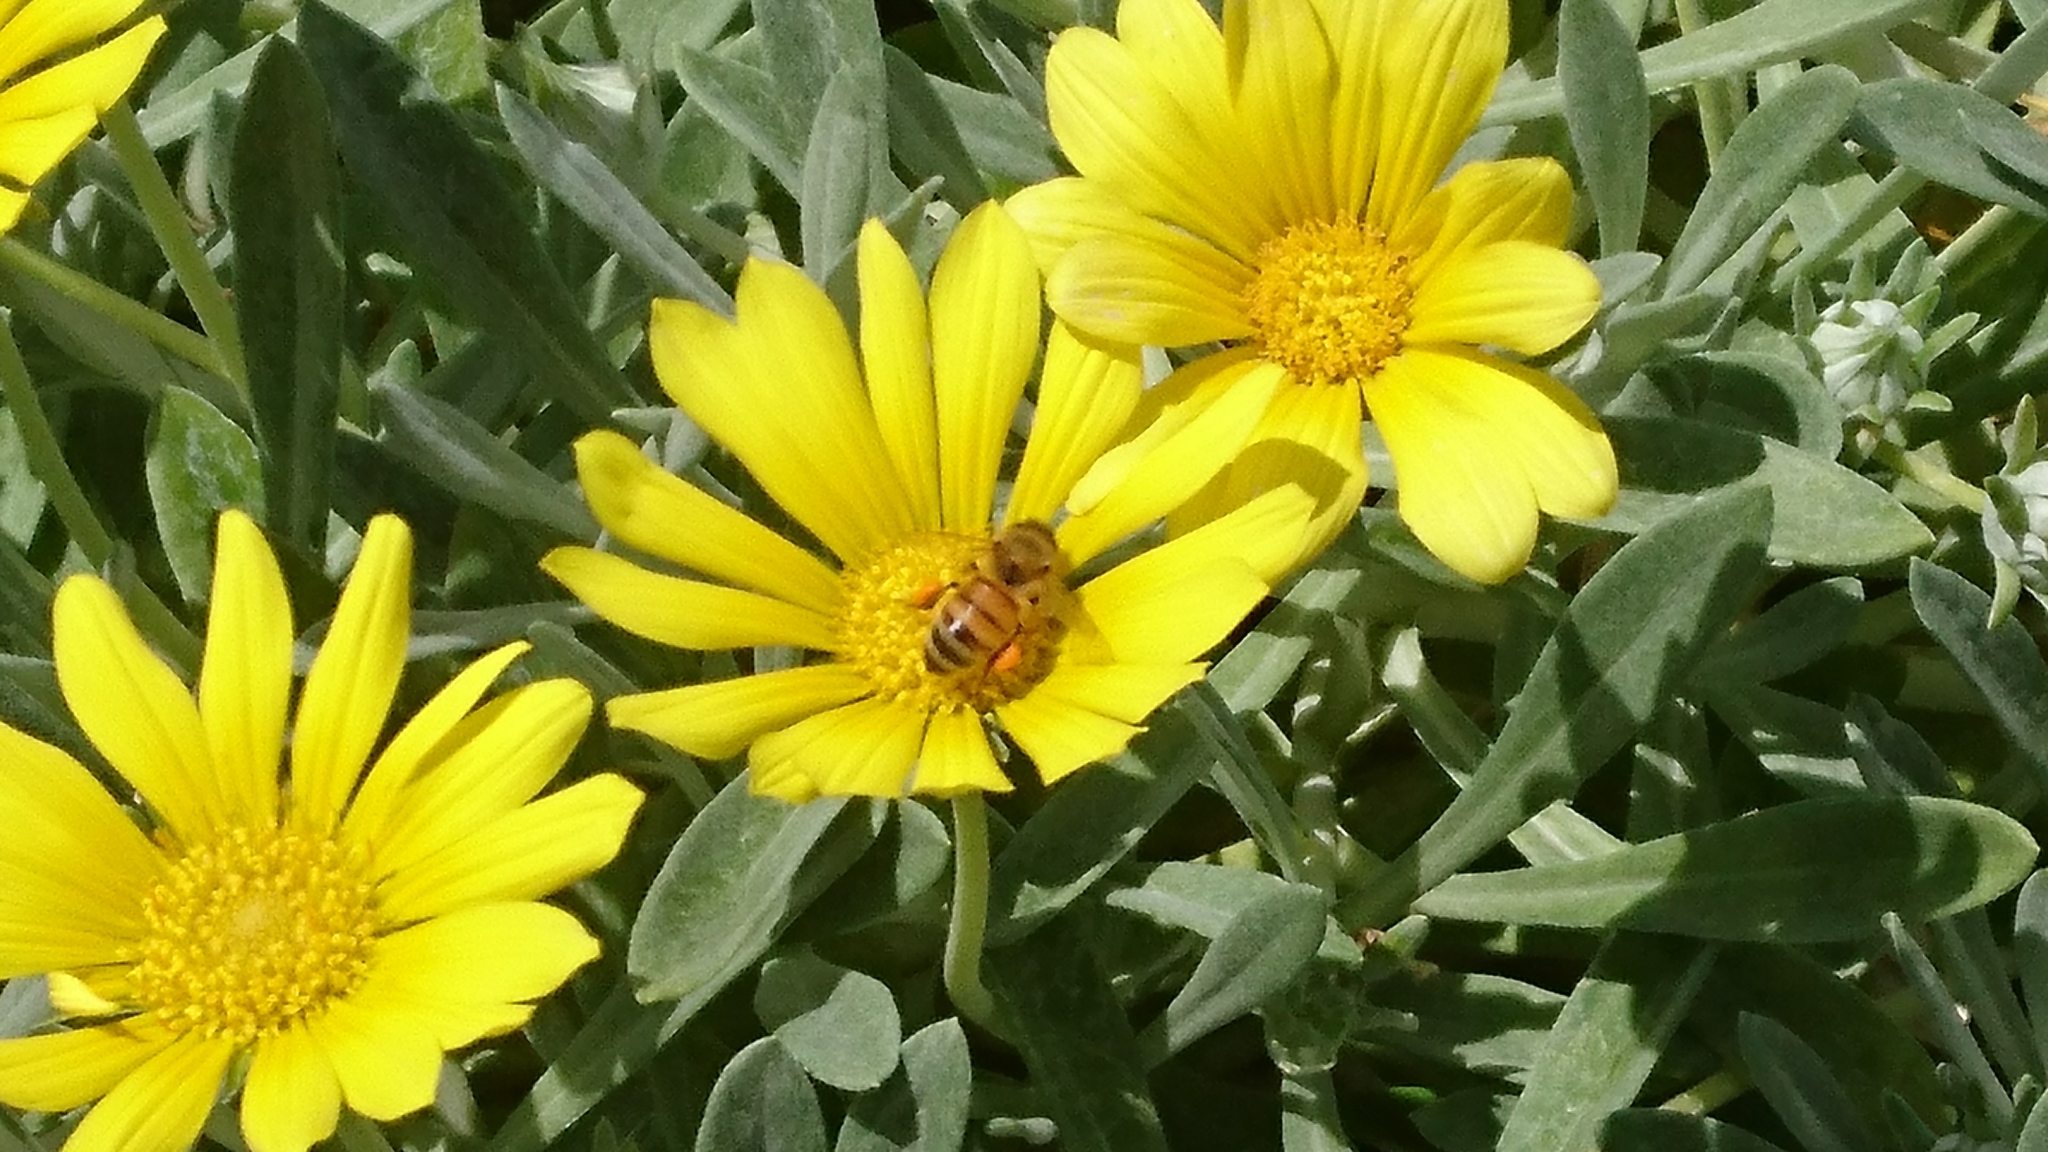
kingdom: Animalia
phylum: Arthropoda
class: Insecta
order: Hymenoptera
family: Apidae
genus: Apis
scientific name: Apis mellifera
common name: Honey bee
